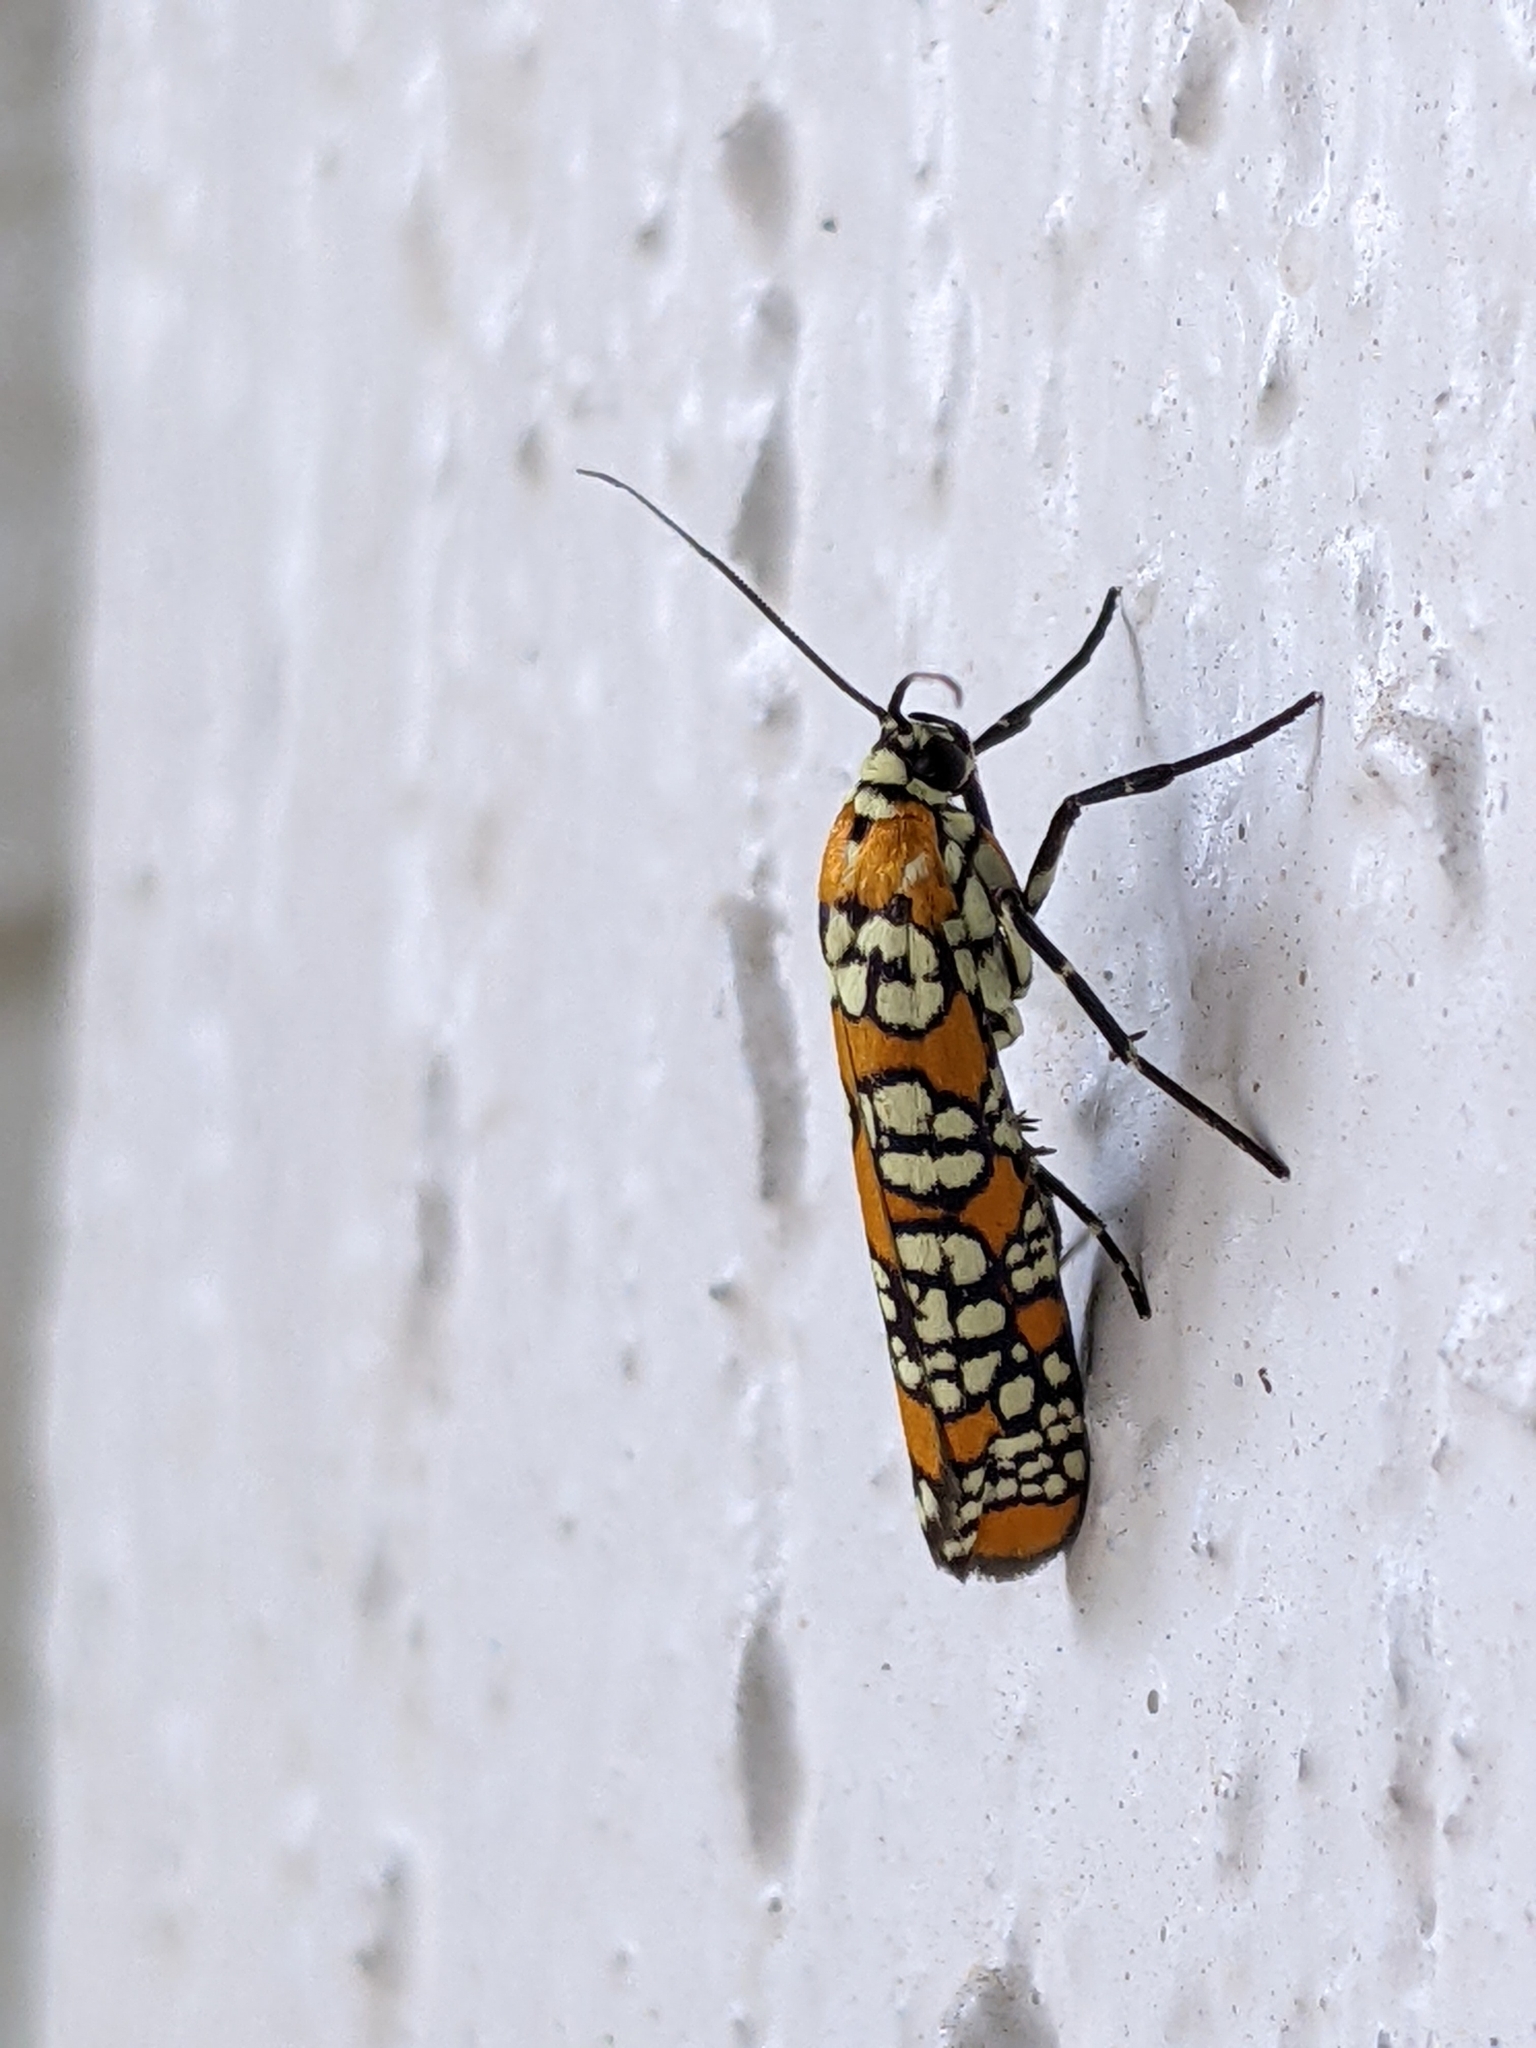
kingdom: Animalia
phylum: Arthropoda
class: Insecta
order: Lepidoptera
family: Attevidae
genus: Atteva
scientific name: Atteva punctella
